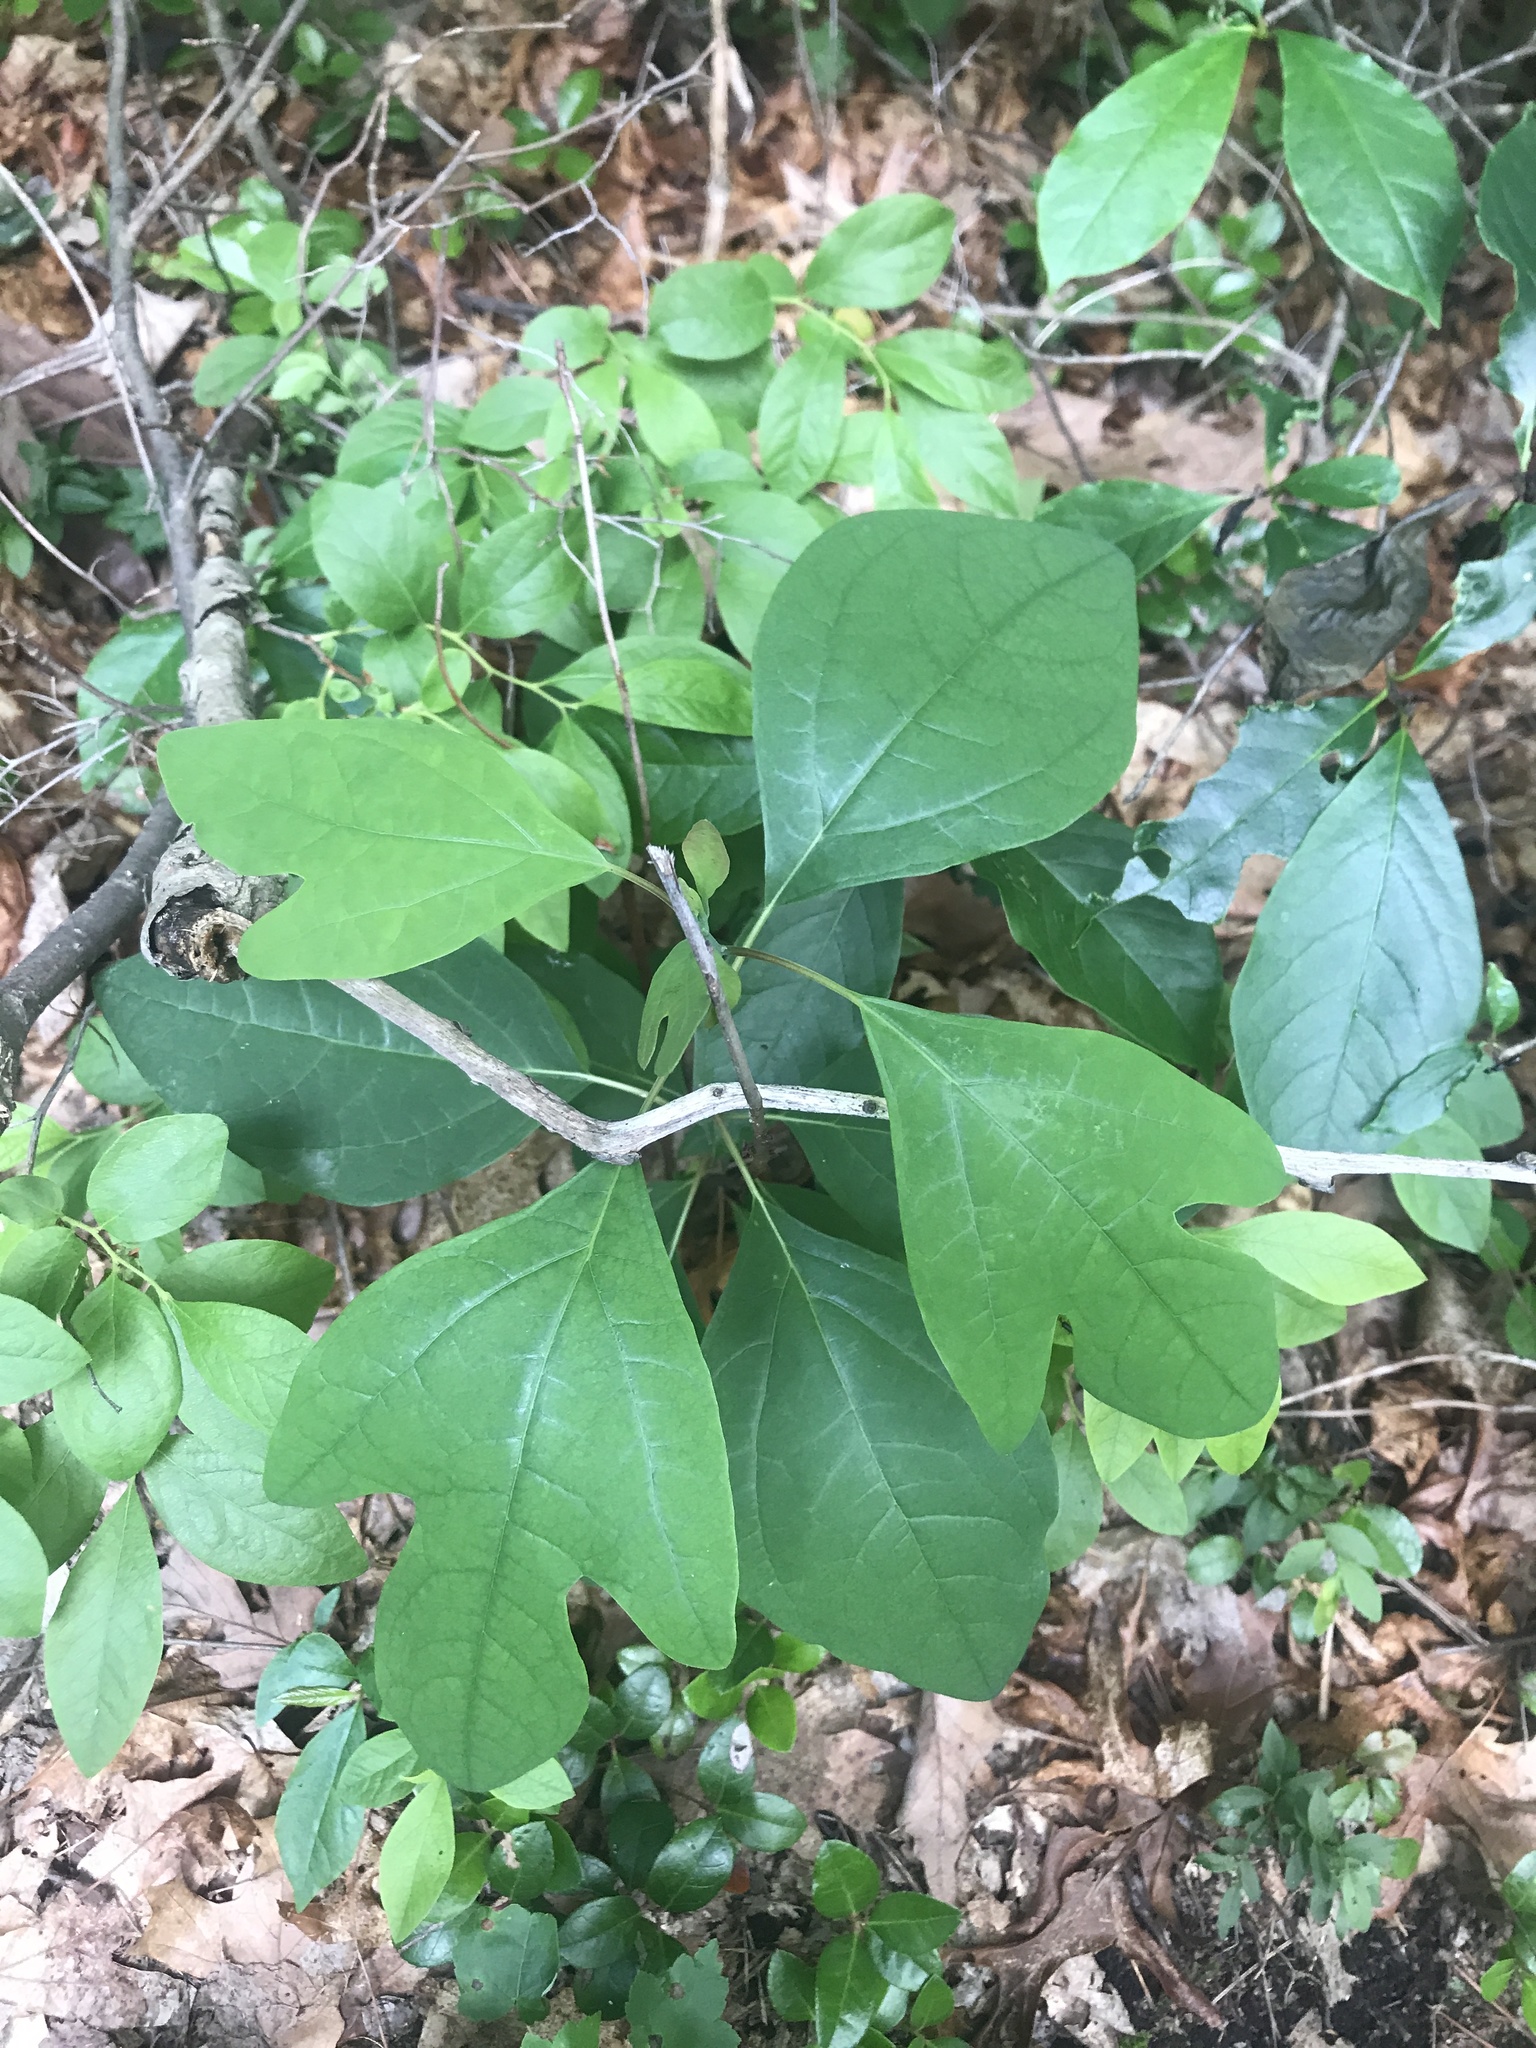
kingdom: Plantae
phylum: Tracheophyta
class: Magnoliopsida
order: Laurales
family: Lauraceae
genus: Sassafras
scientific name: Sassafras albidum
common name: Sassafras
